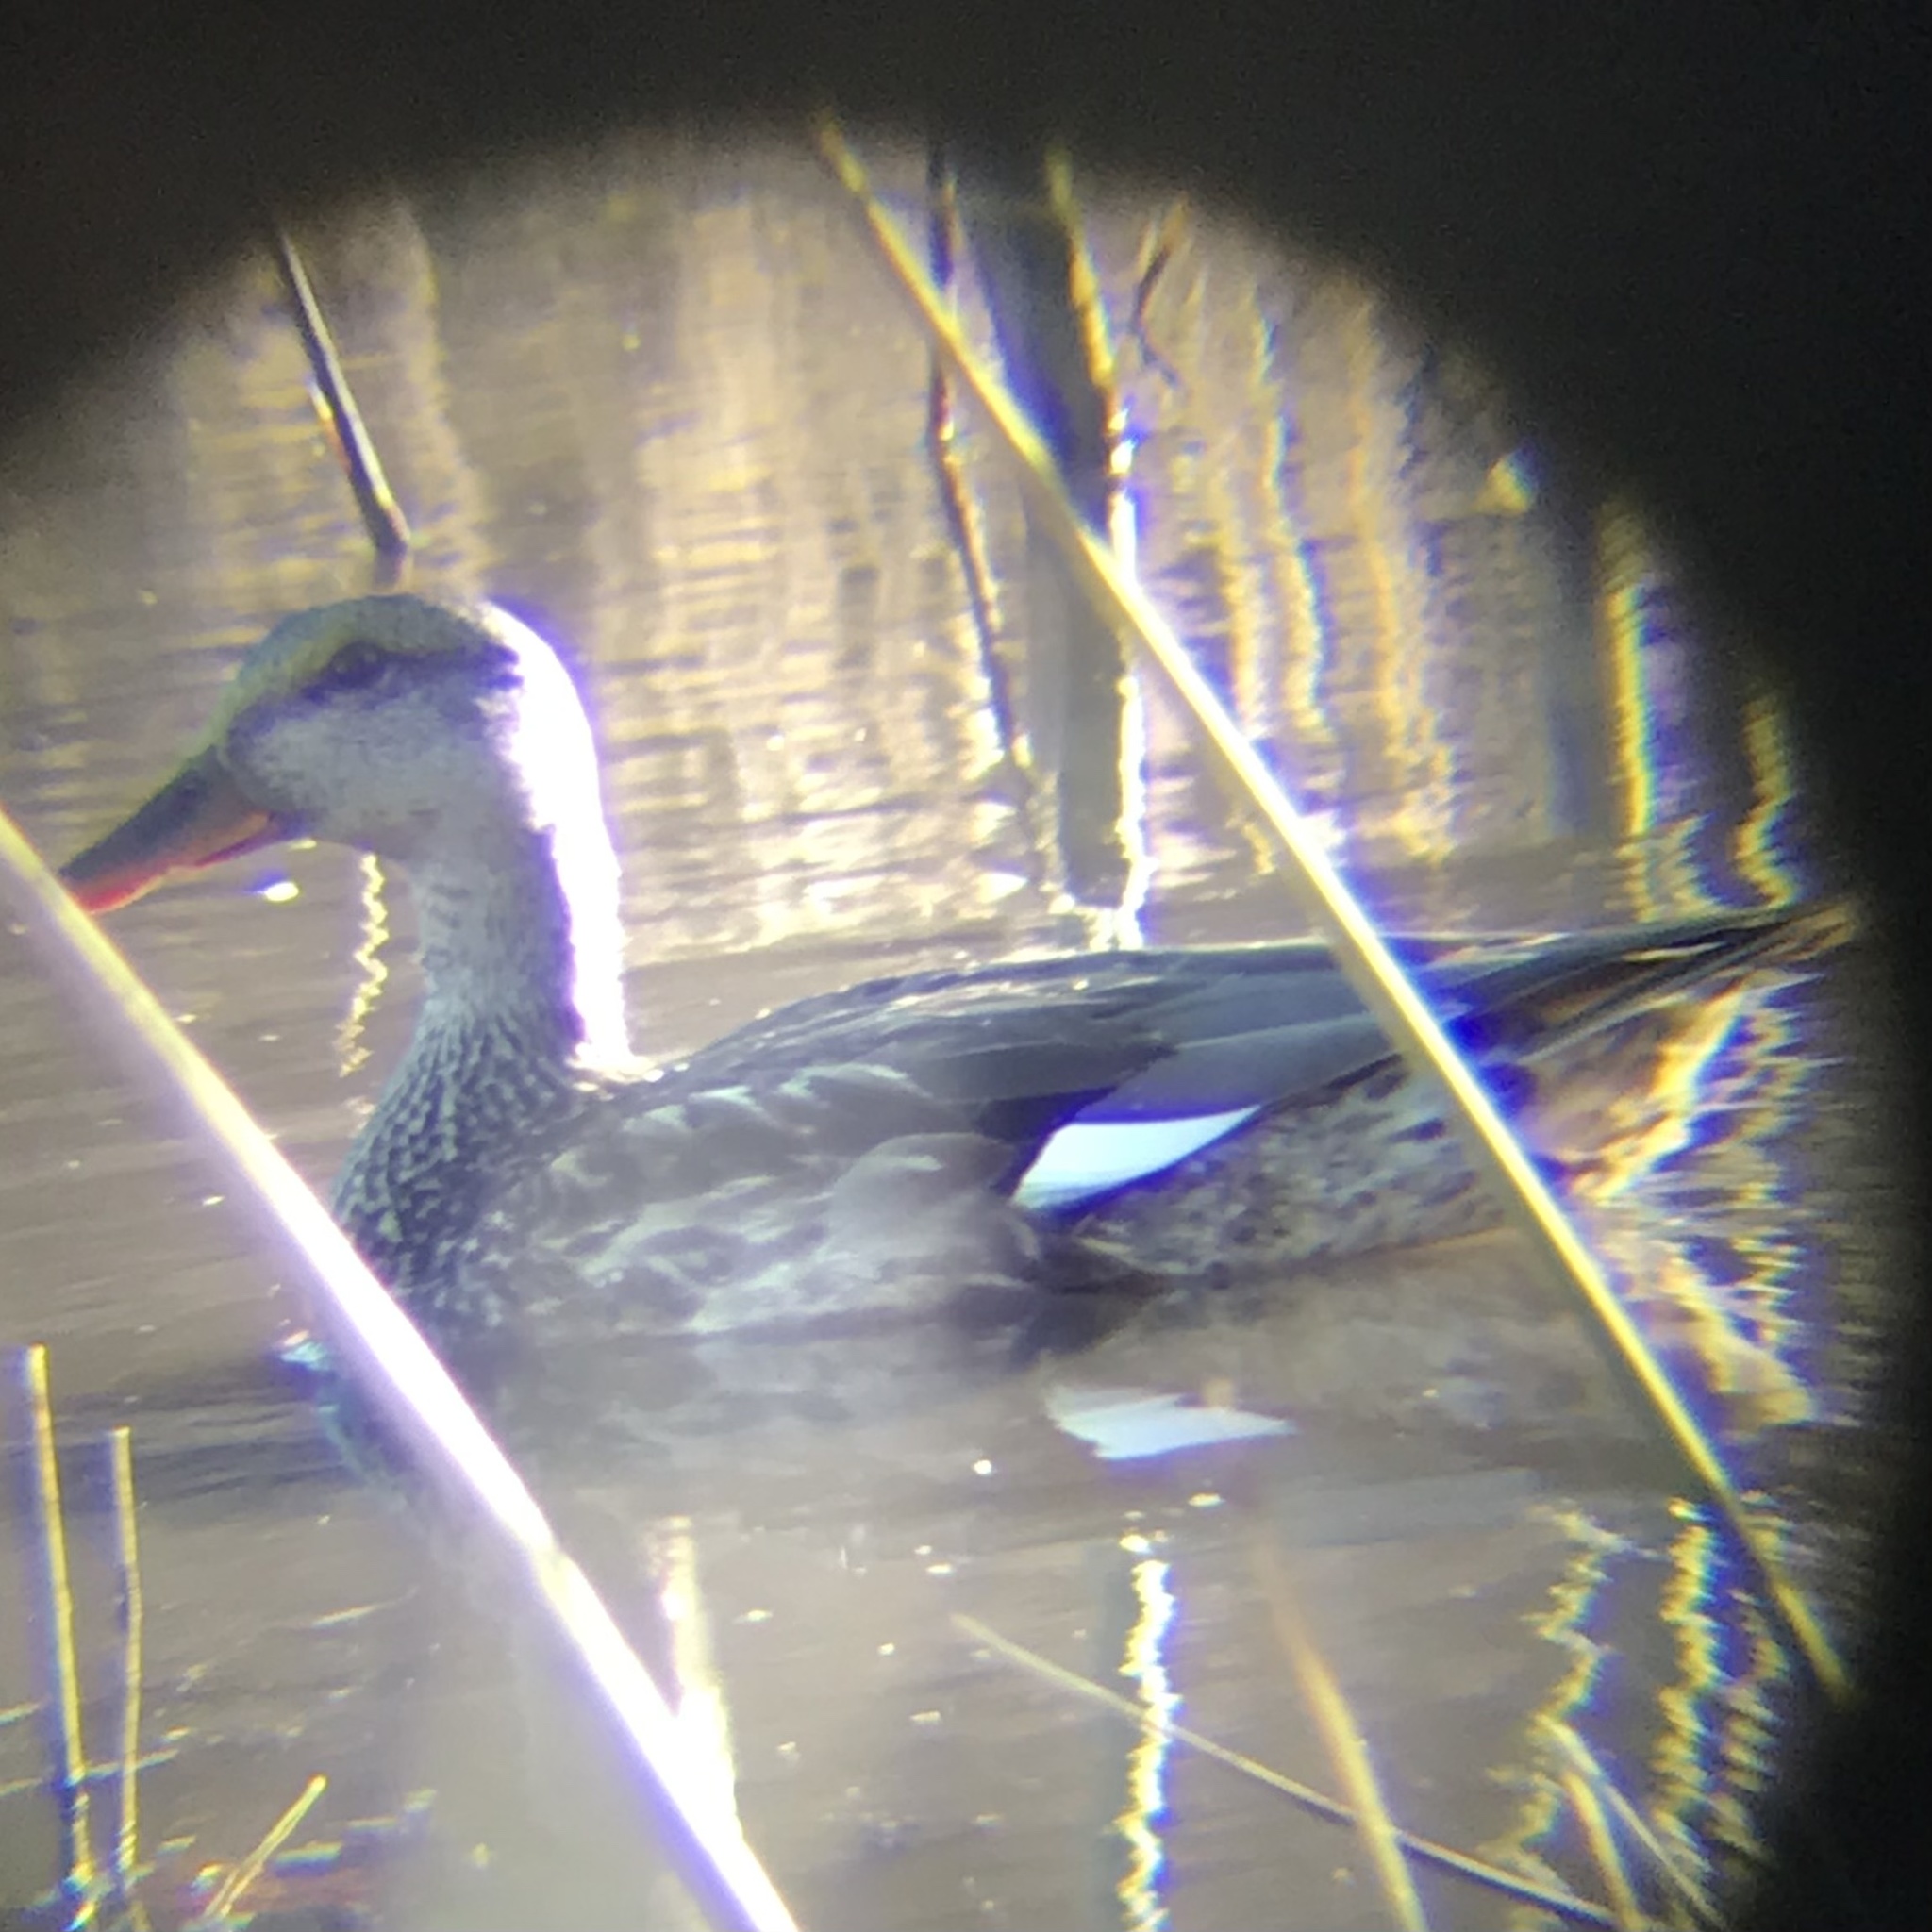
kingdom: Animalia
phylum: Chordata
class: Aves
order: Anseriformes
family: Anatidae
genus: Mareca
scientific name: Mareca strepera
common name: Gadwall
